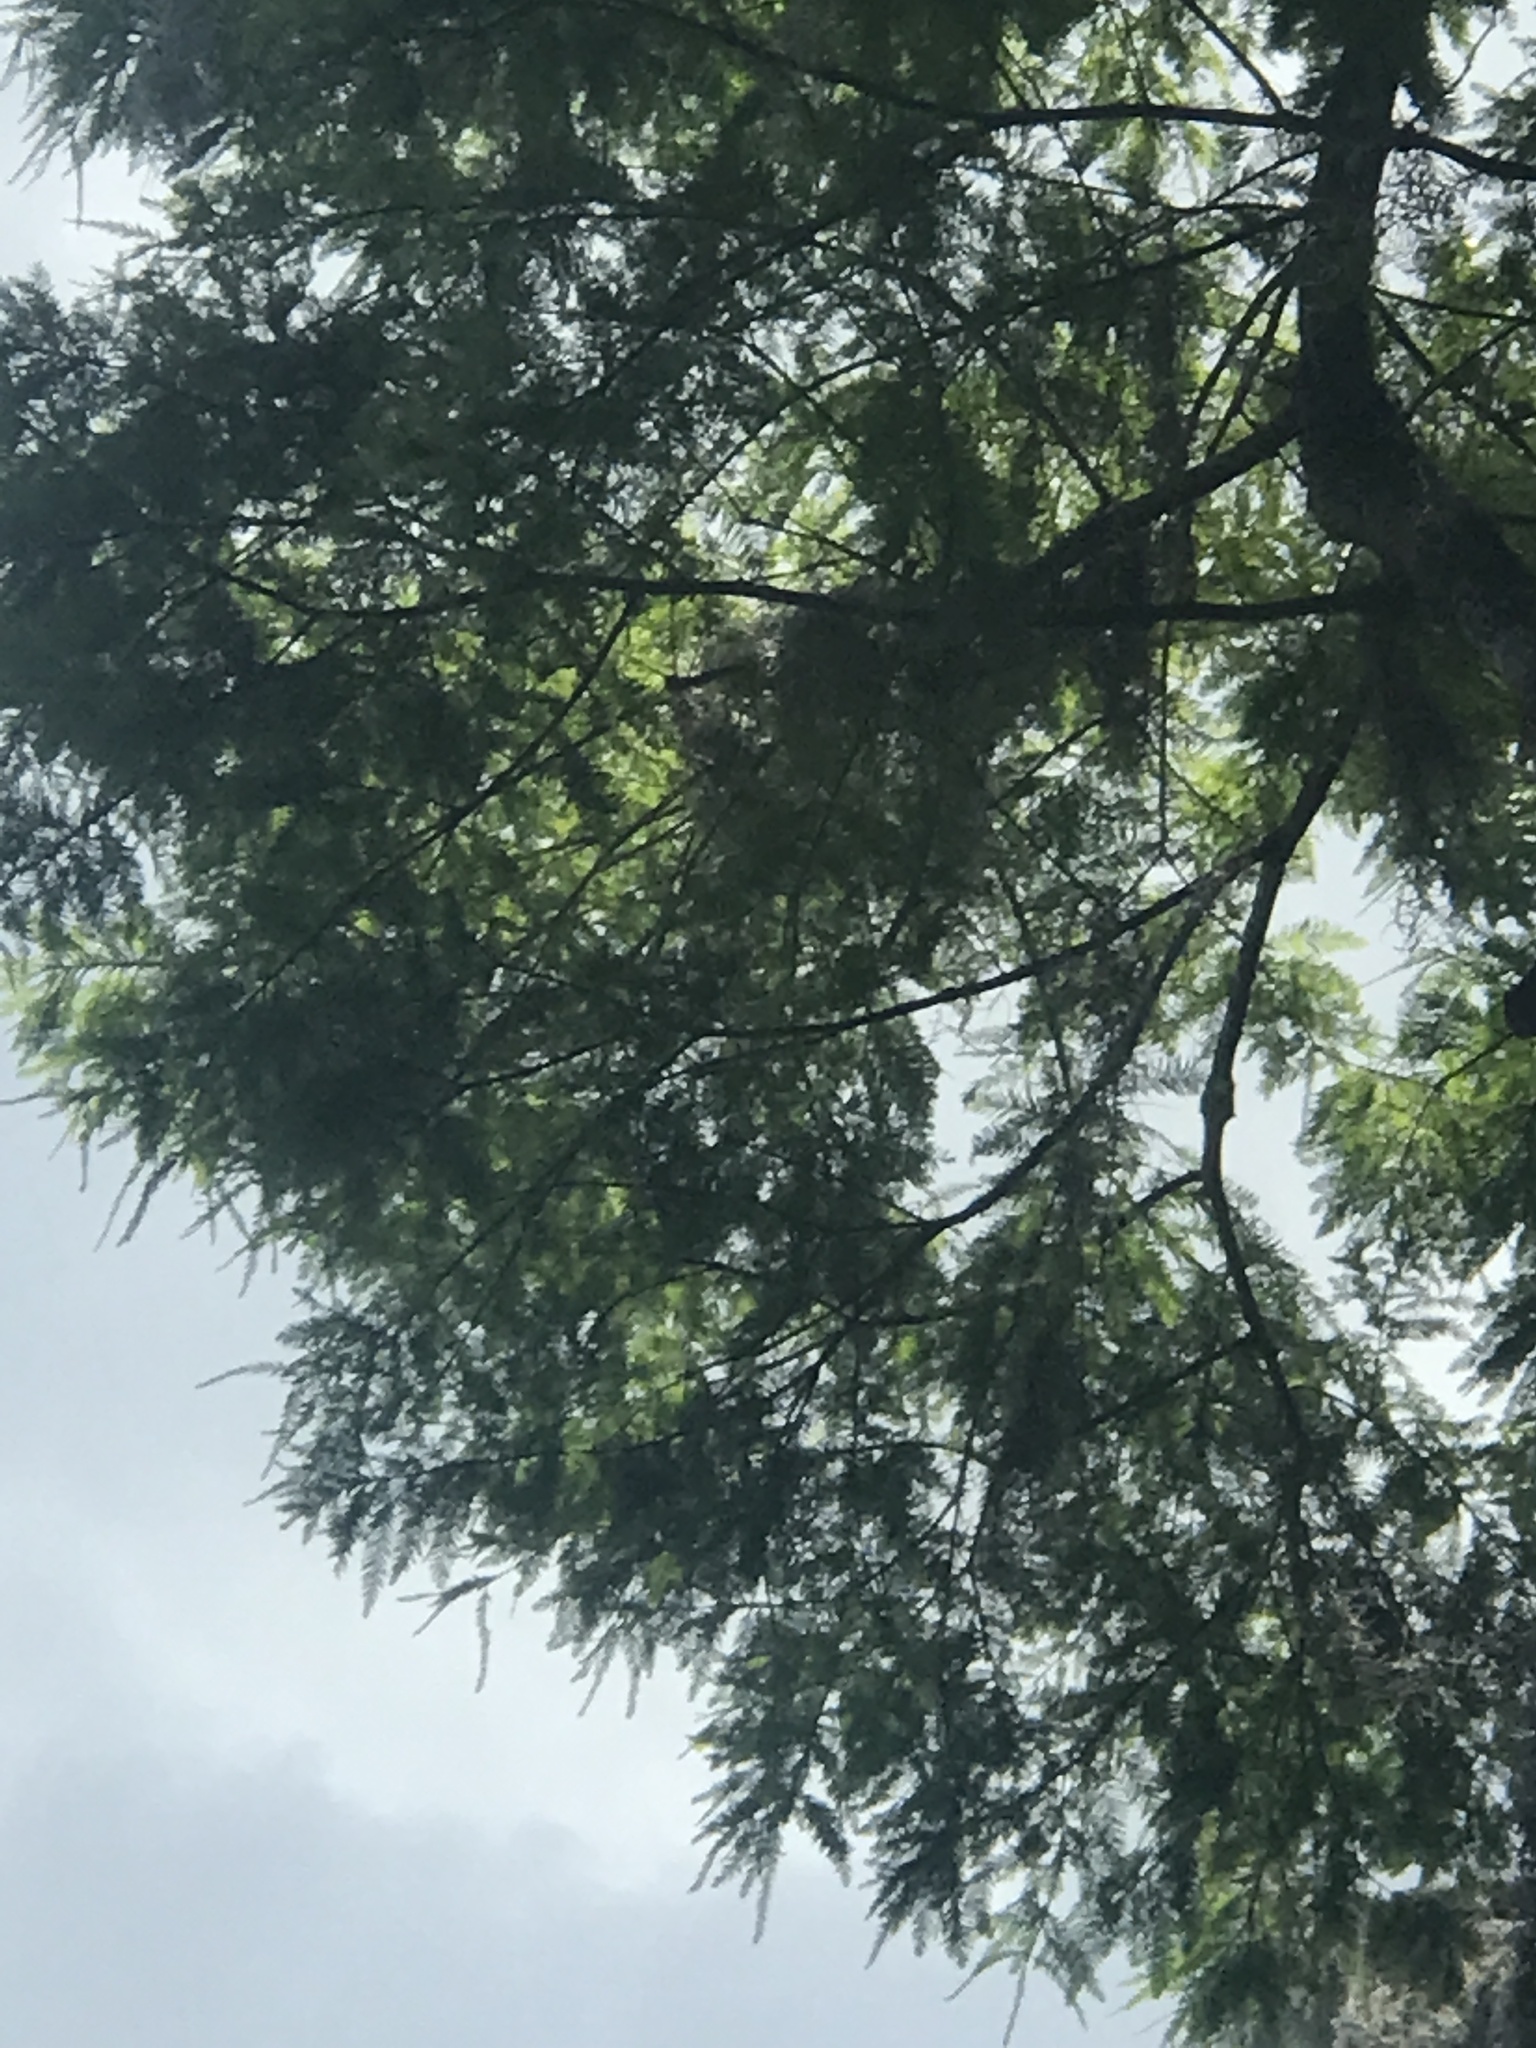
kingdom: Plantae
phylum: Tracheophyta
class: Pinopsida
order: Pinales
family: Cupressaceae
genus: Taxodium
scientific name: Taxodium distichum
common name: Bald cypress
